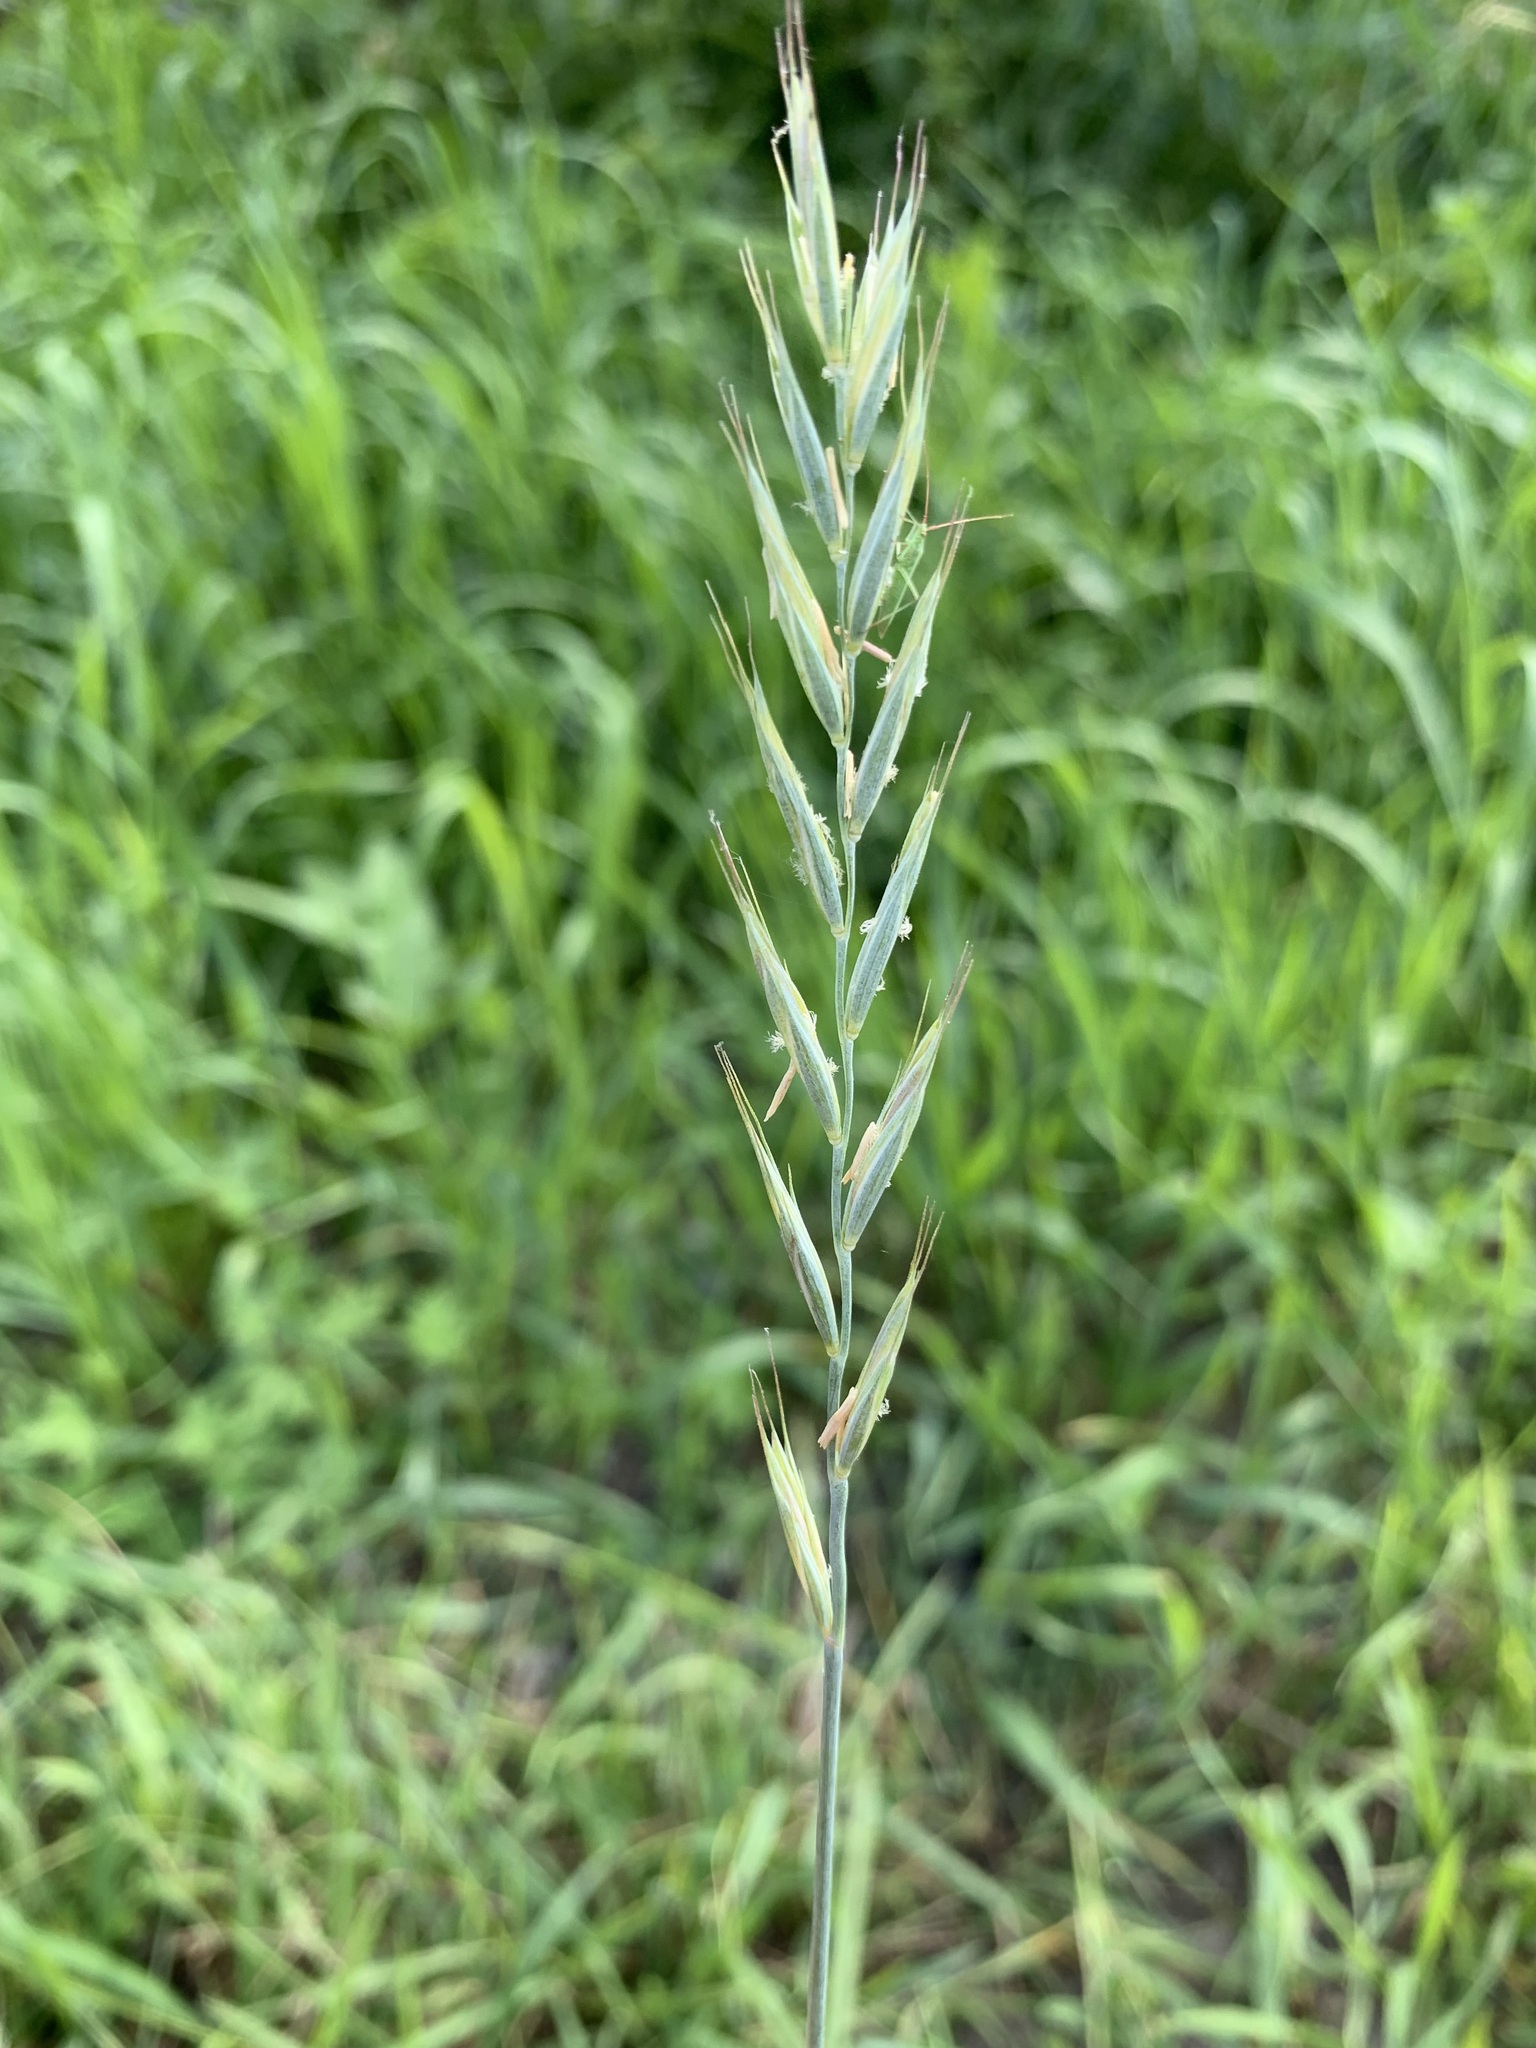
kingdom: Plantae
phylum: Tracheophyta
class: Liliopsida
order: Poales
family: Poaceae
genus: Elymus
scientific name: Elymus repens
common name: Quackgrass
